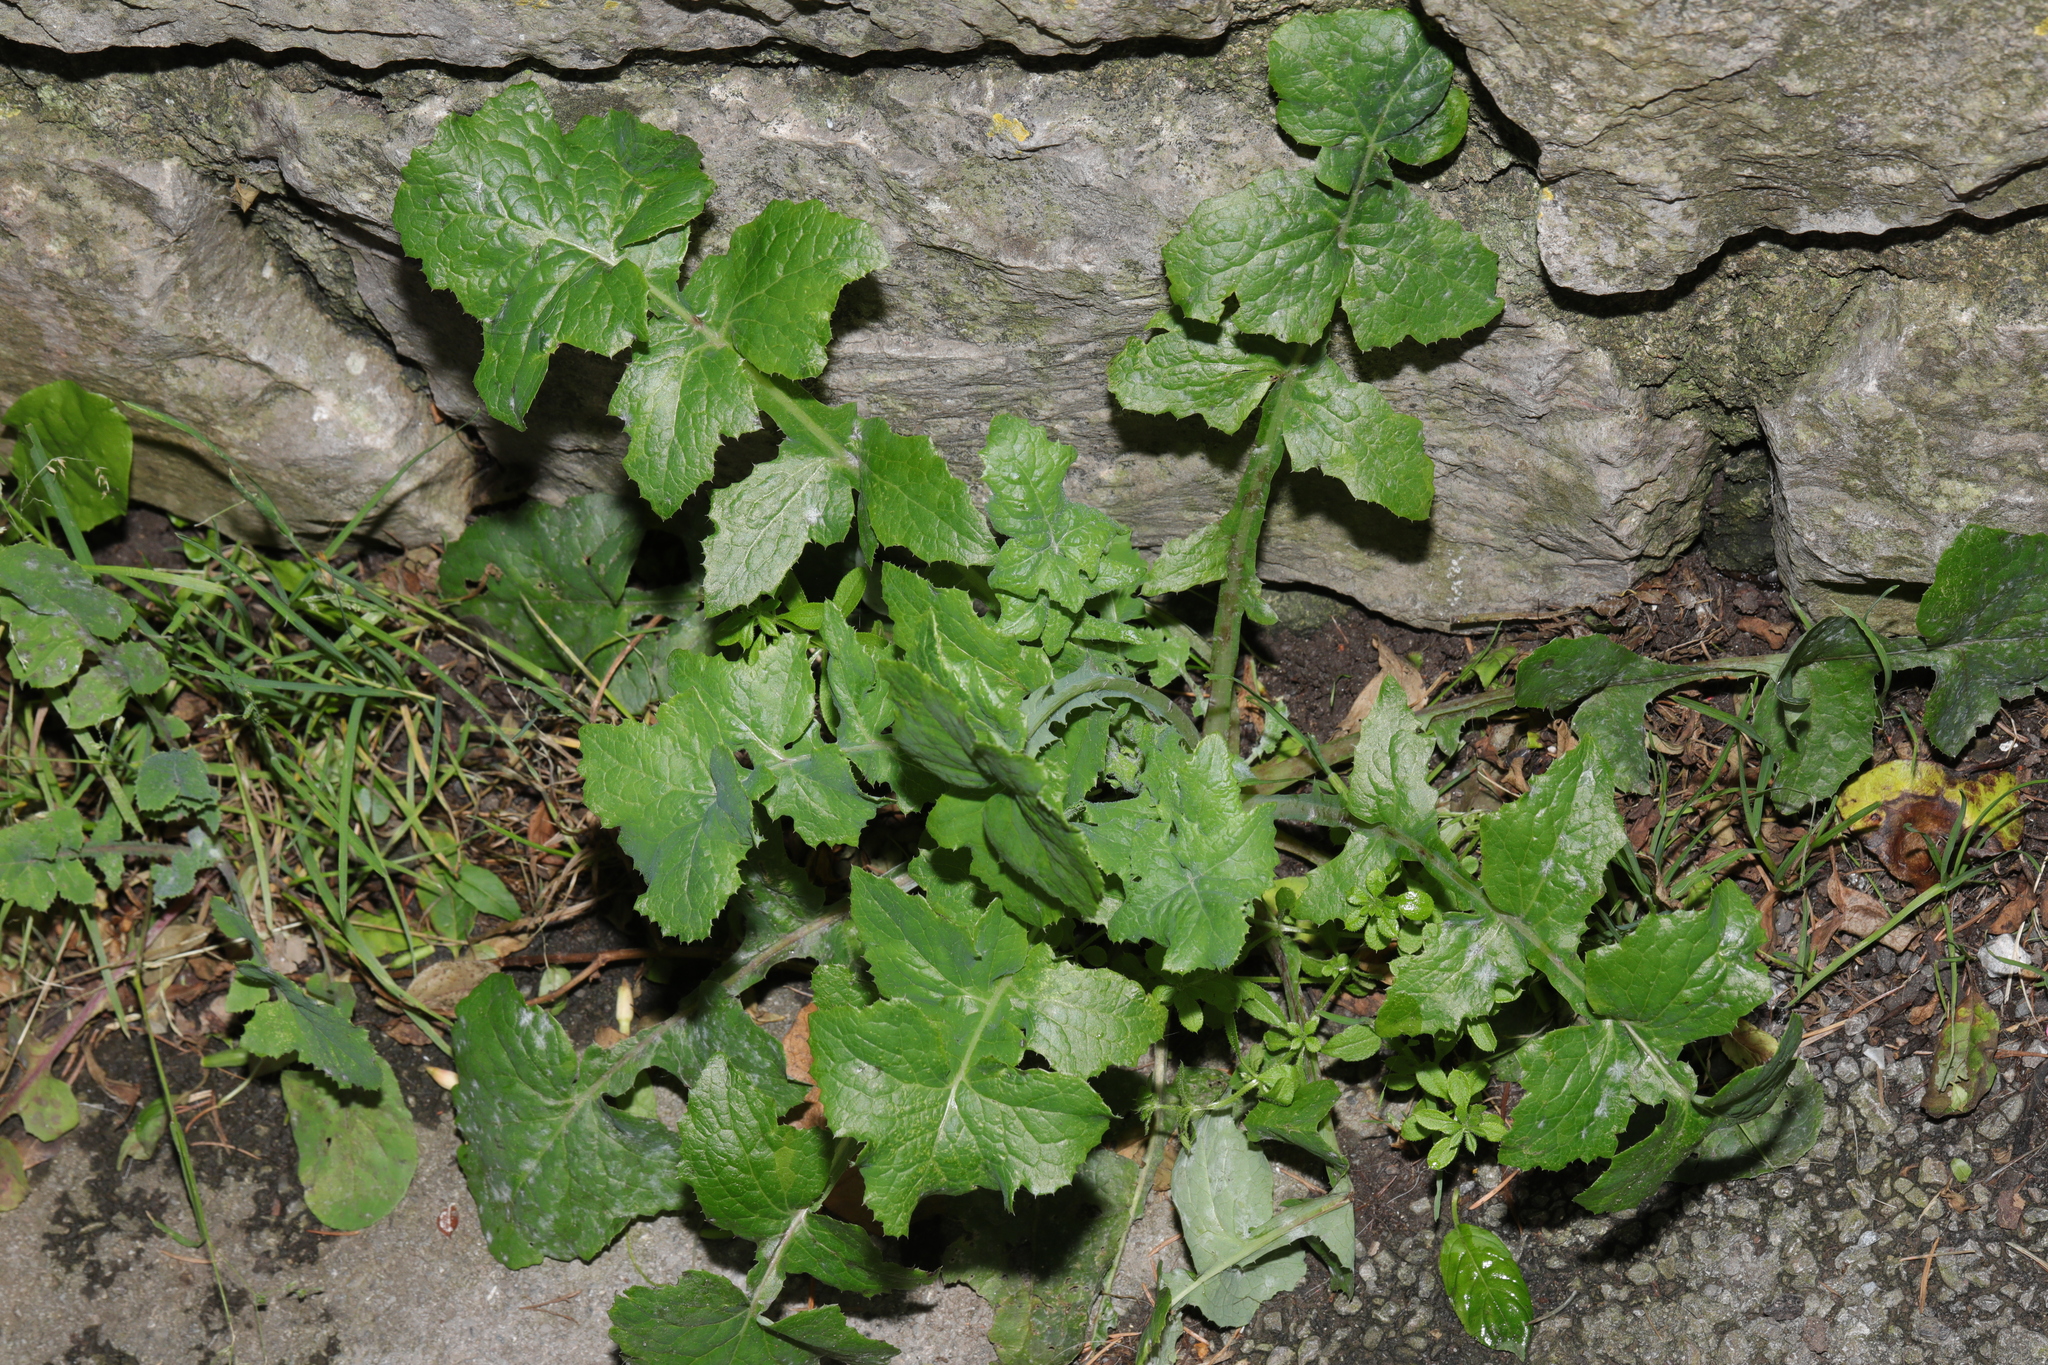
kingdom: Plantae
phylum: Tracheophyta
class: Magnoliopsida
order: Asterales
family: Asteraceae
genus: Sonchus
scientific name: Sonchus oleraceus
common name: Common sowthistle
